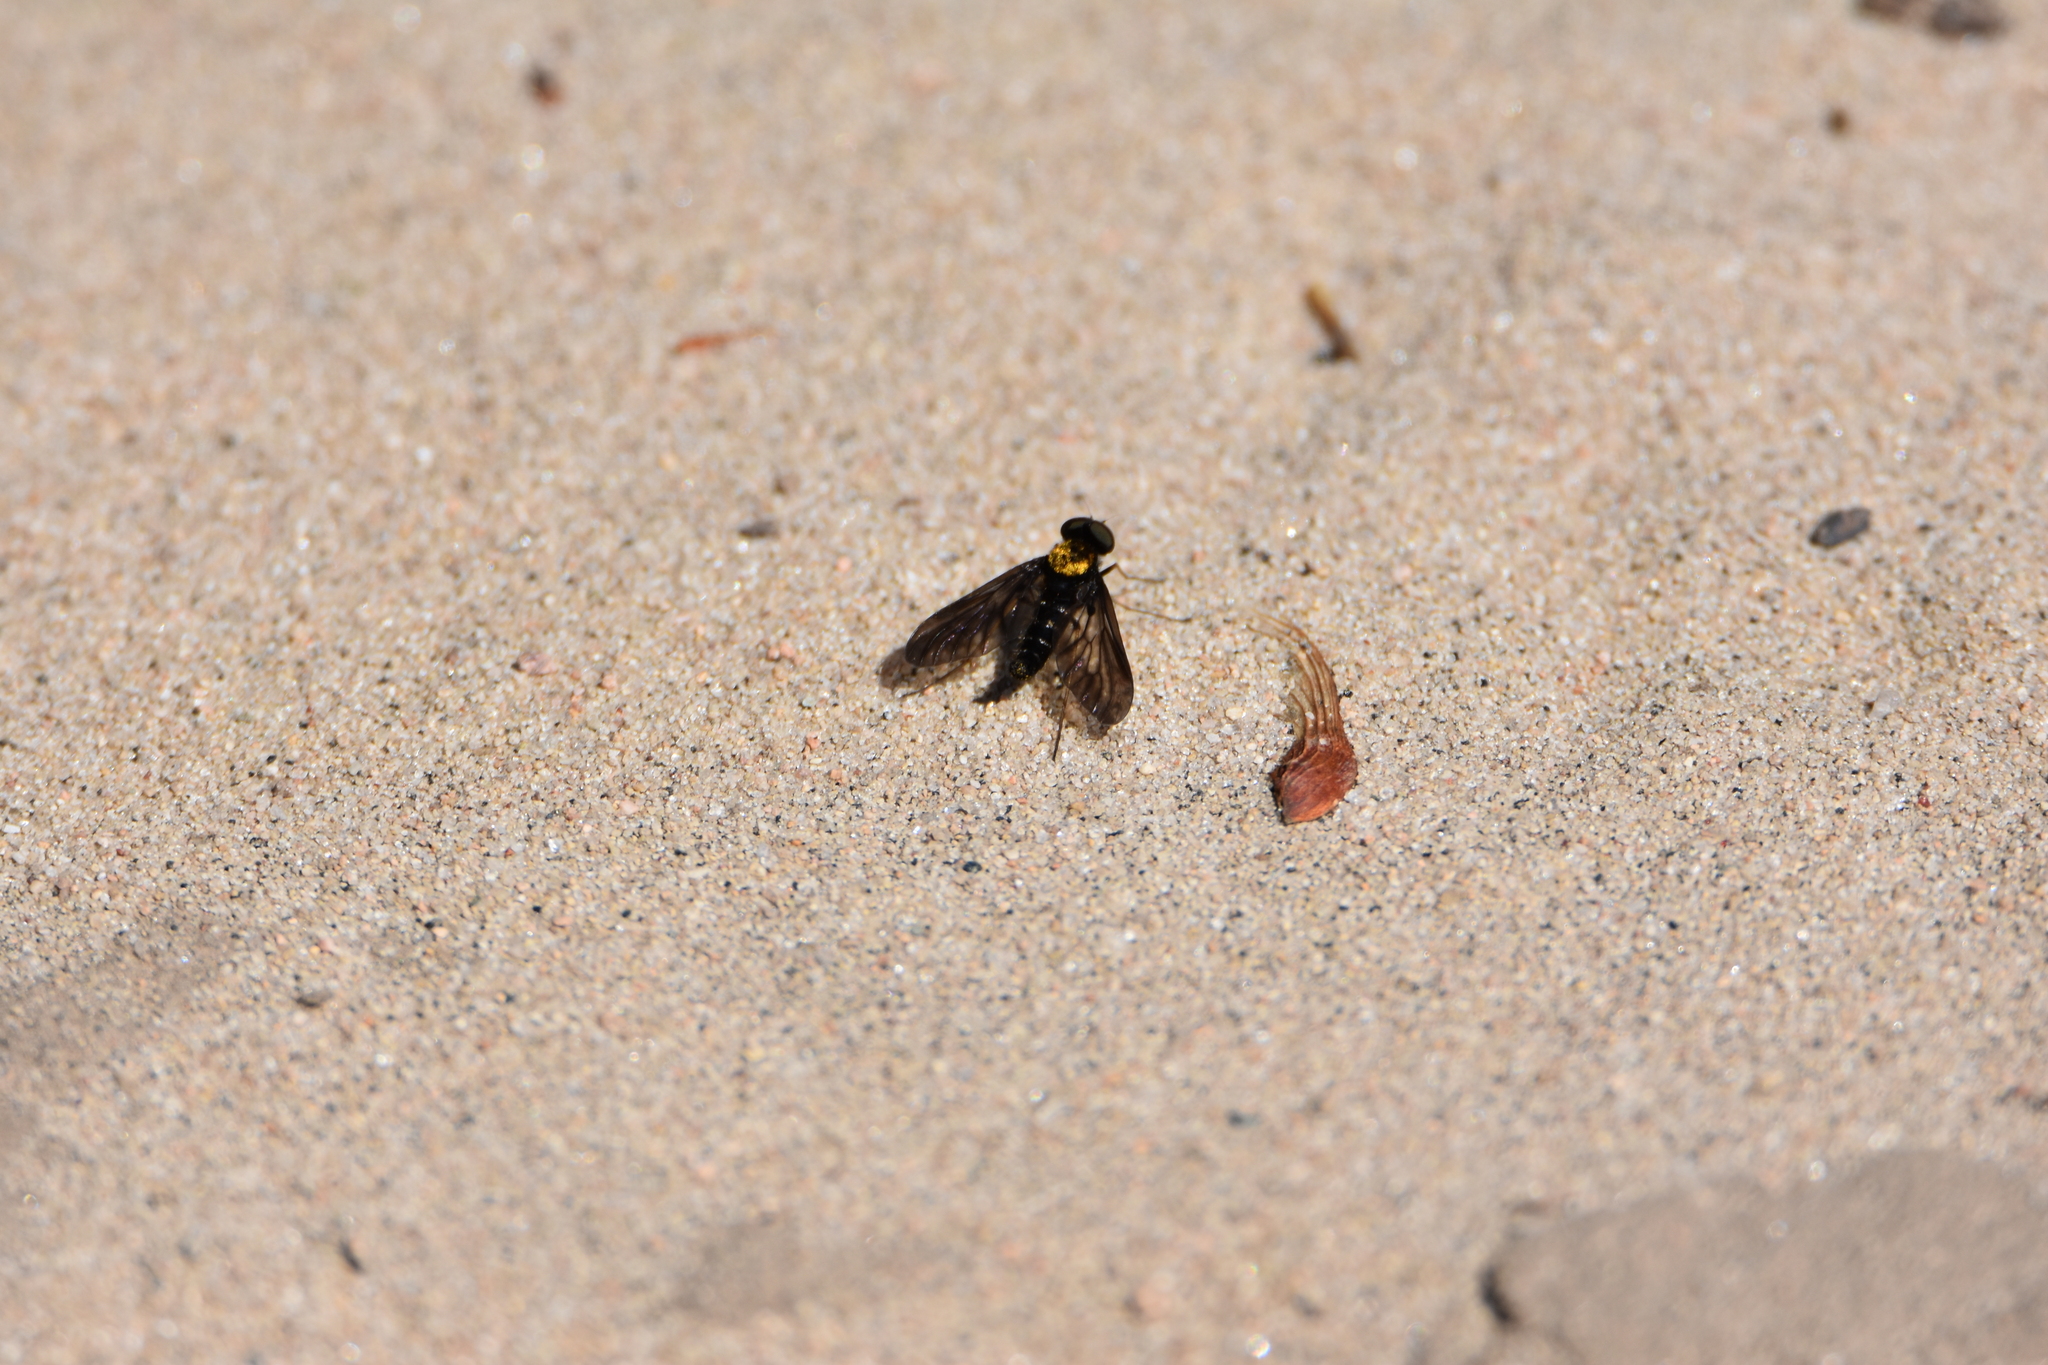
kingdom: Animalia
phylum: Arthropoda
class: Insecta
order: Diptera
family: Rhagionidae
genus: Chrysopilus
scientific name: Chrysopilus thoracicus
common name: Golden-backed snipe fly
